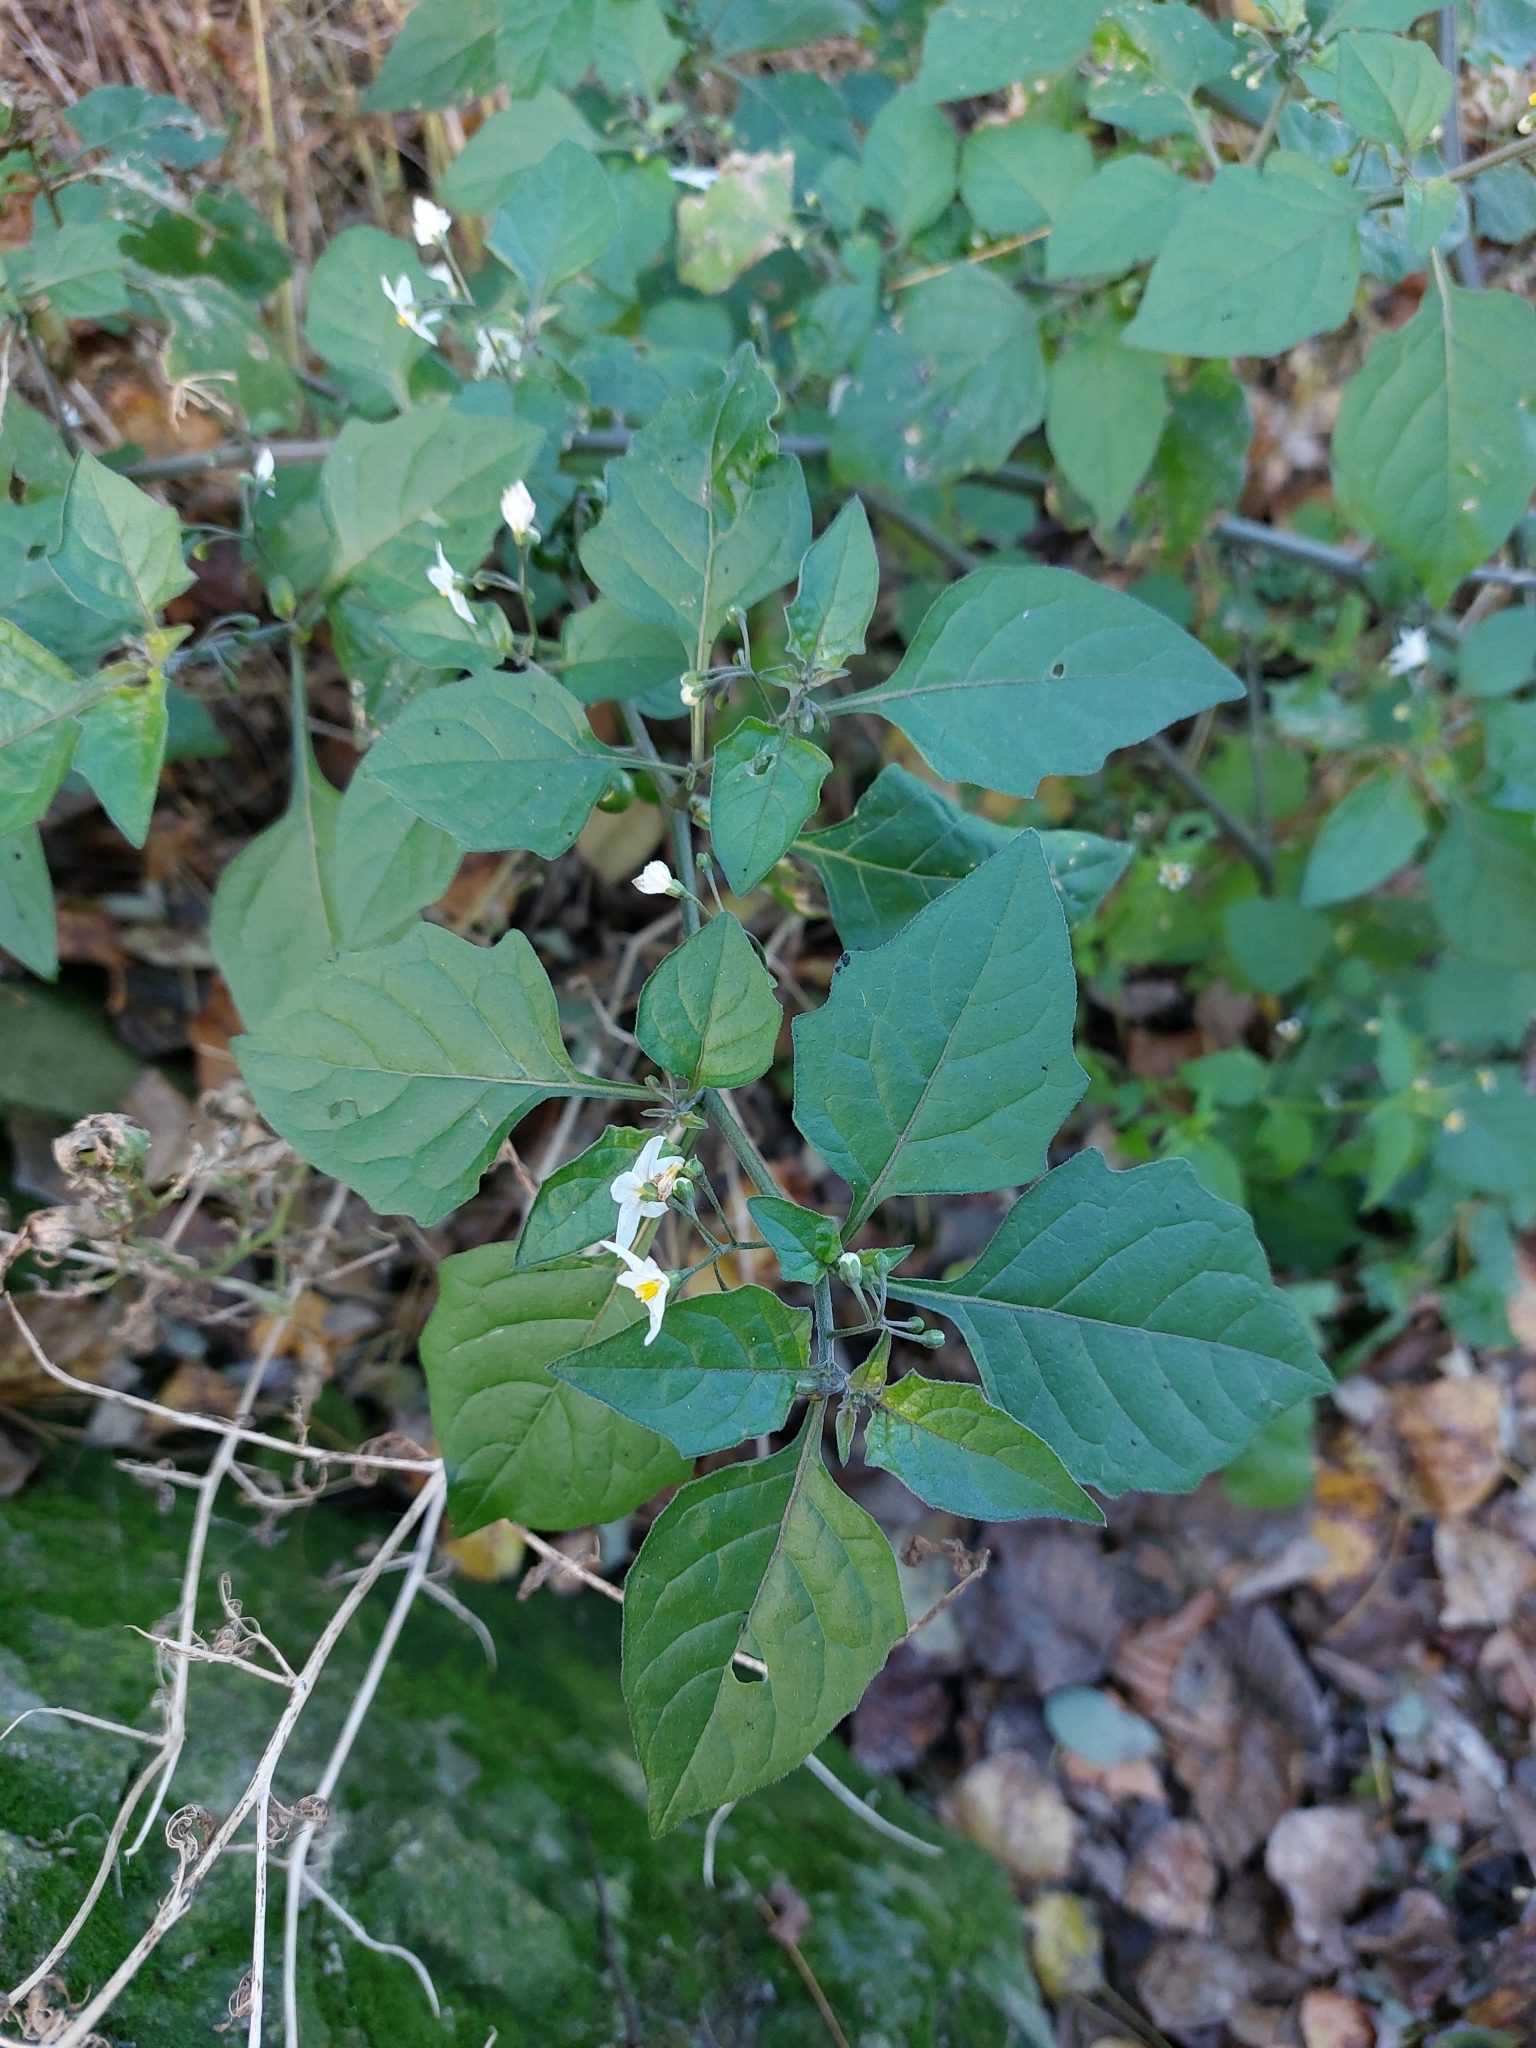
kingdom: Plantae
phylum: Tracheophyta
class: Magnoliopsida
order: Solanales
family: Solanaceae
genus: Solanum
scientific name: Solanum nigrum
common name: Black nightshade
